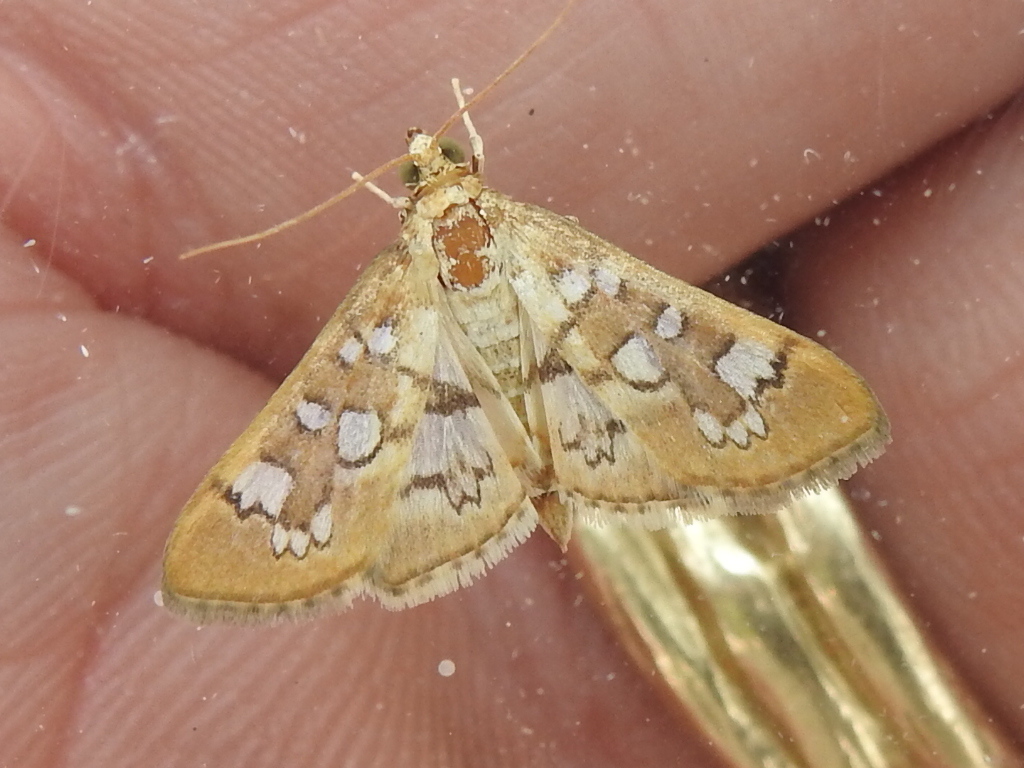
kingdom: Animalia
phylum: Arthropoda
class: Insecta
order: Lepidoptera
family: Crambidae
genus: Samea
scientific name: Samea baccatalis
